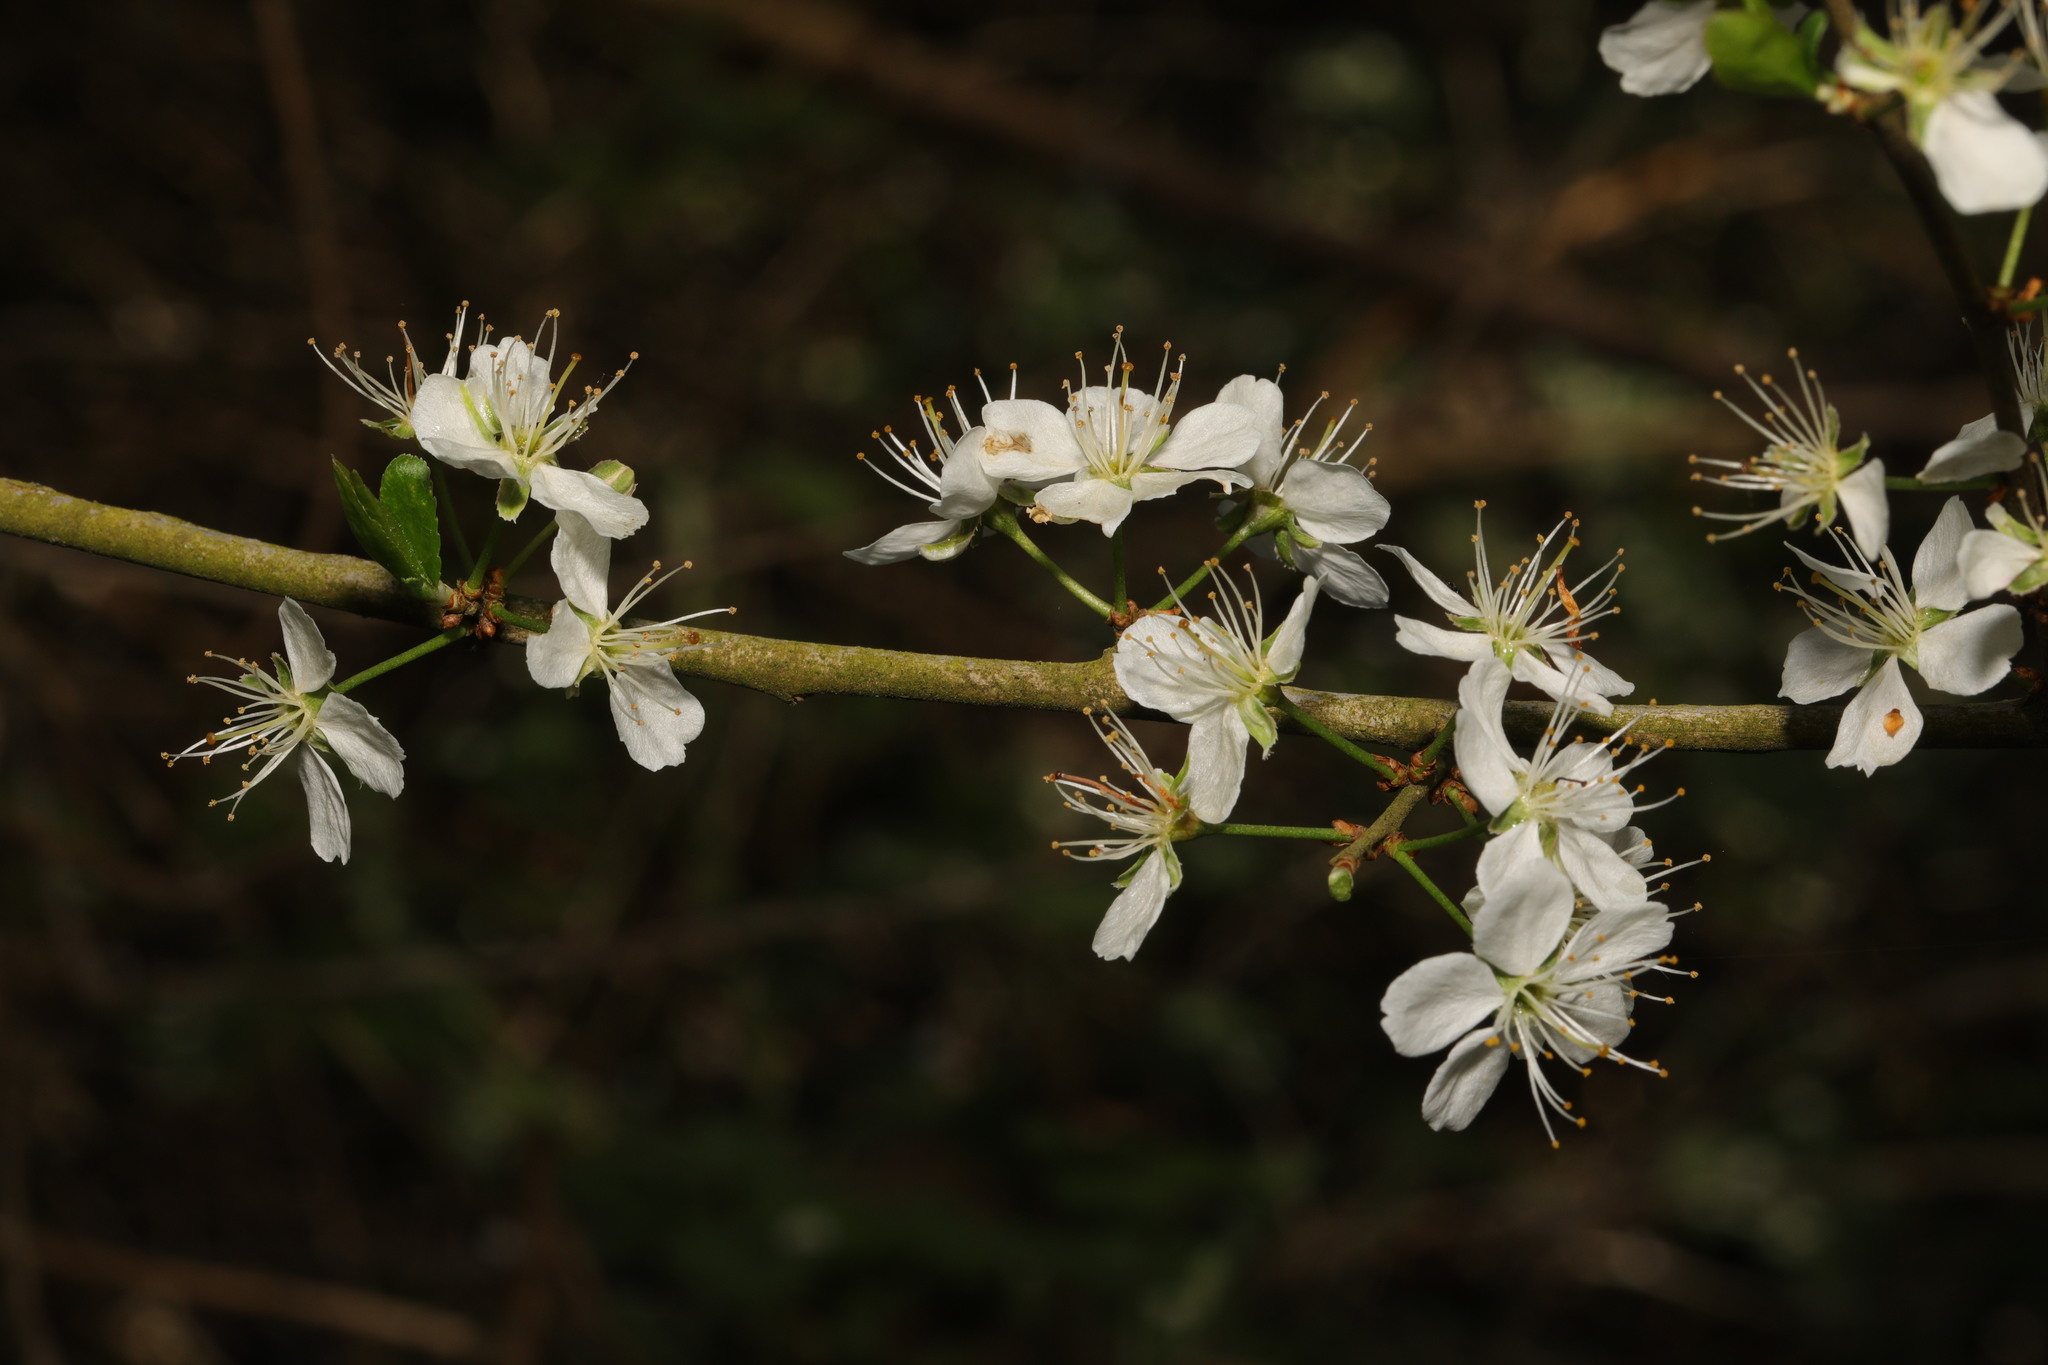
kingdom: Plantae
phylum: Tracheophyta
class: Magnoliopsida
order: Rosales
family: Rosaceae
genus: Prunus
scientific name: Prunus spinosa
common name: Blackthorn
